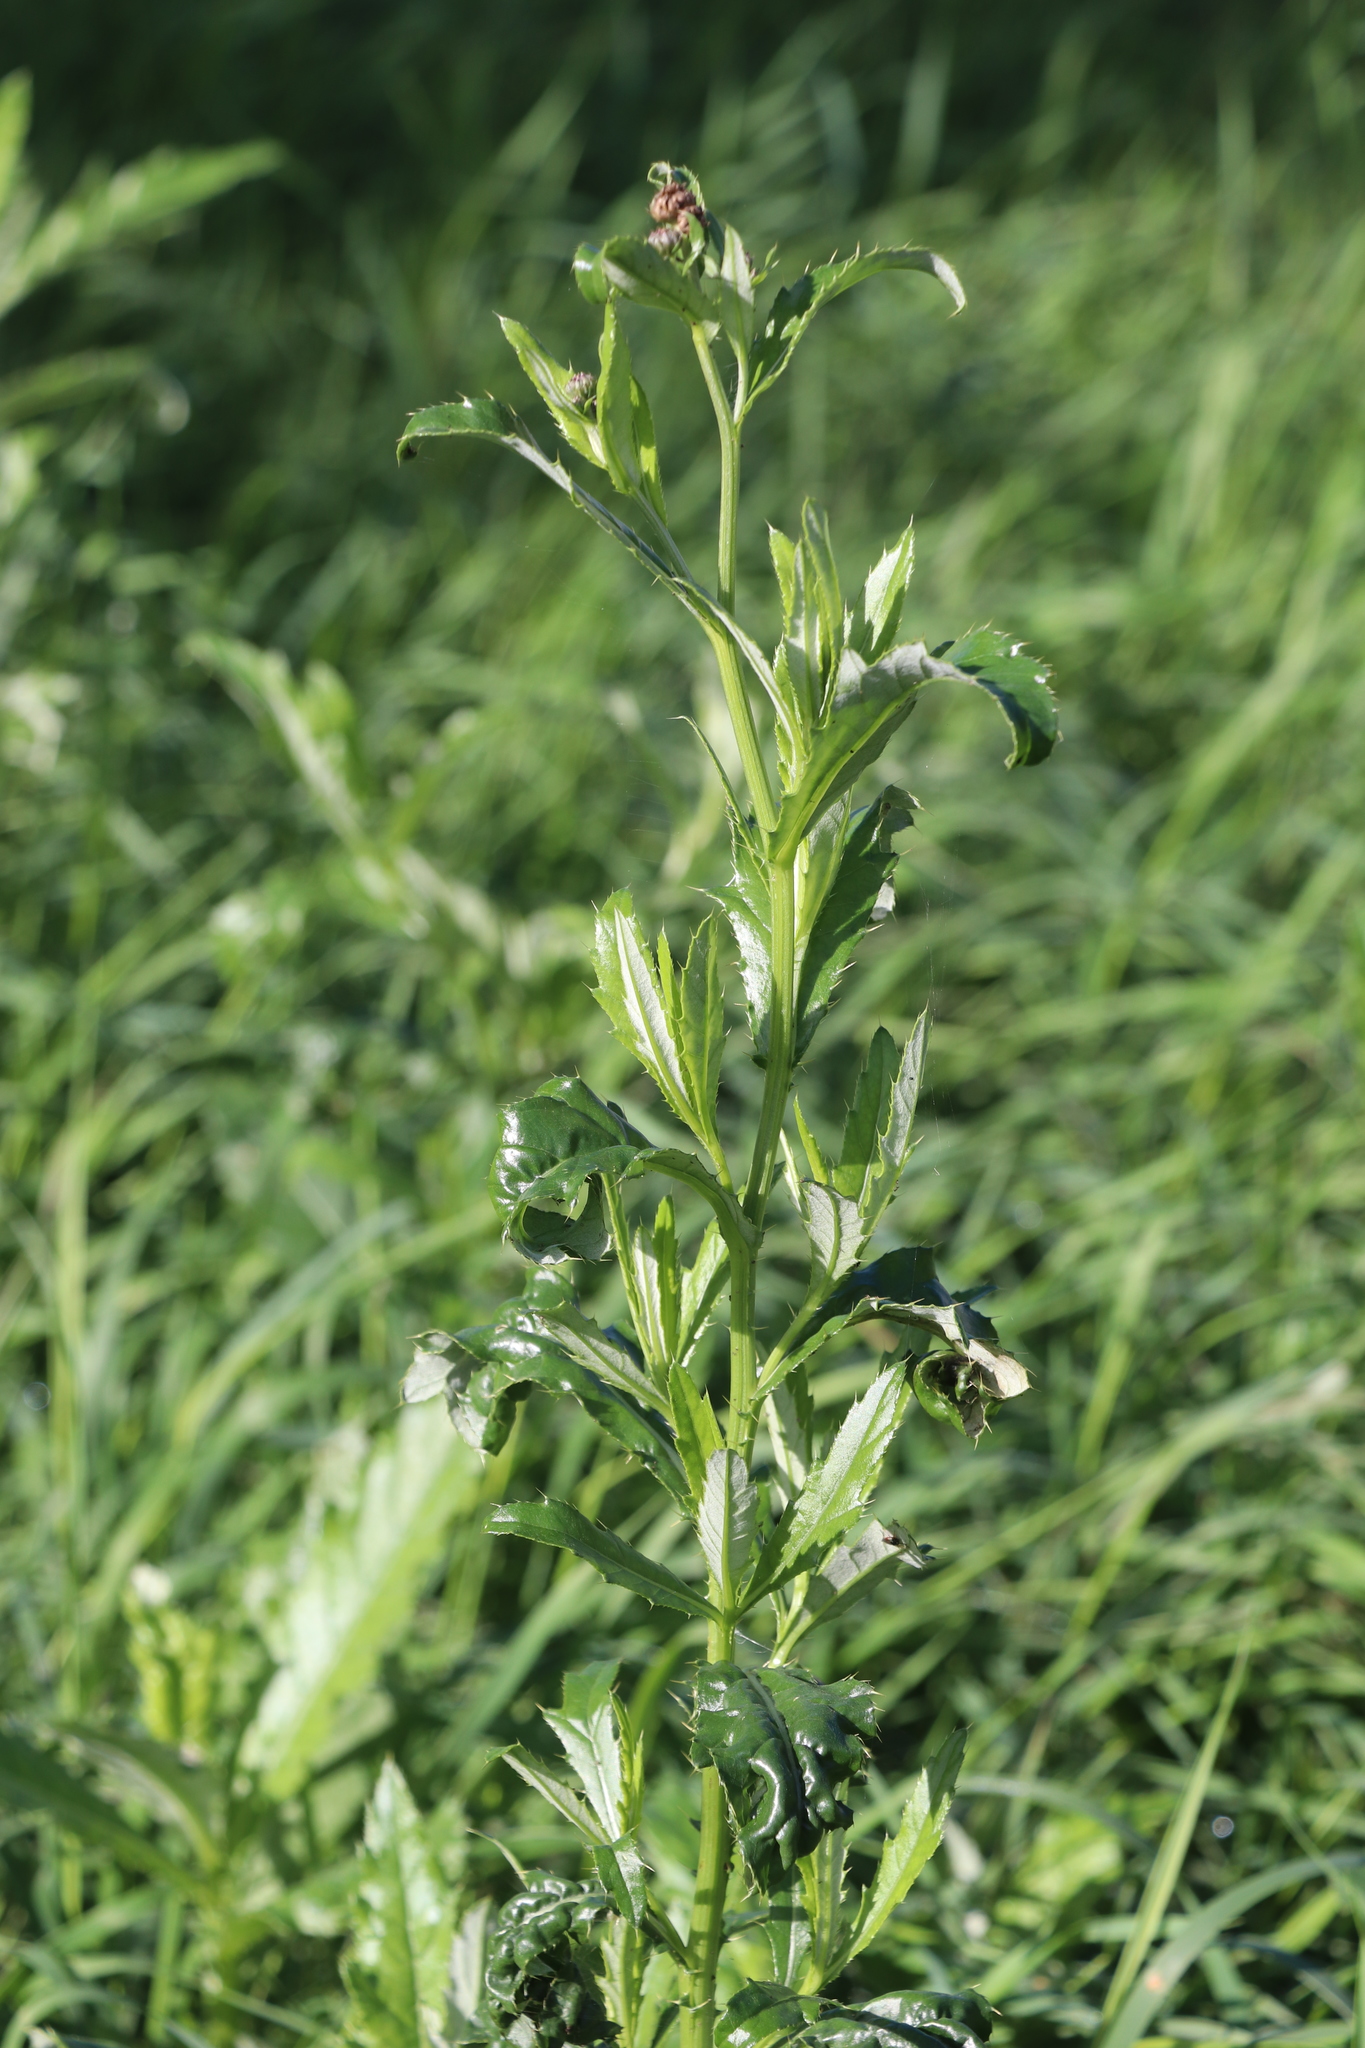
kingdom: Plantae
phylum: Tracheophyta
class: Magnoliopsida
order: Asterales
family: Asteraceae
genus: Cirsium
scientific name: Cirsium arvense
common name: Creeping thistle
